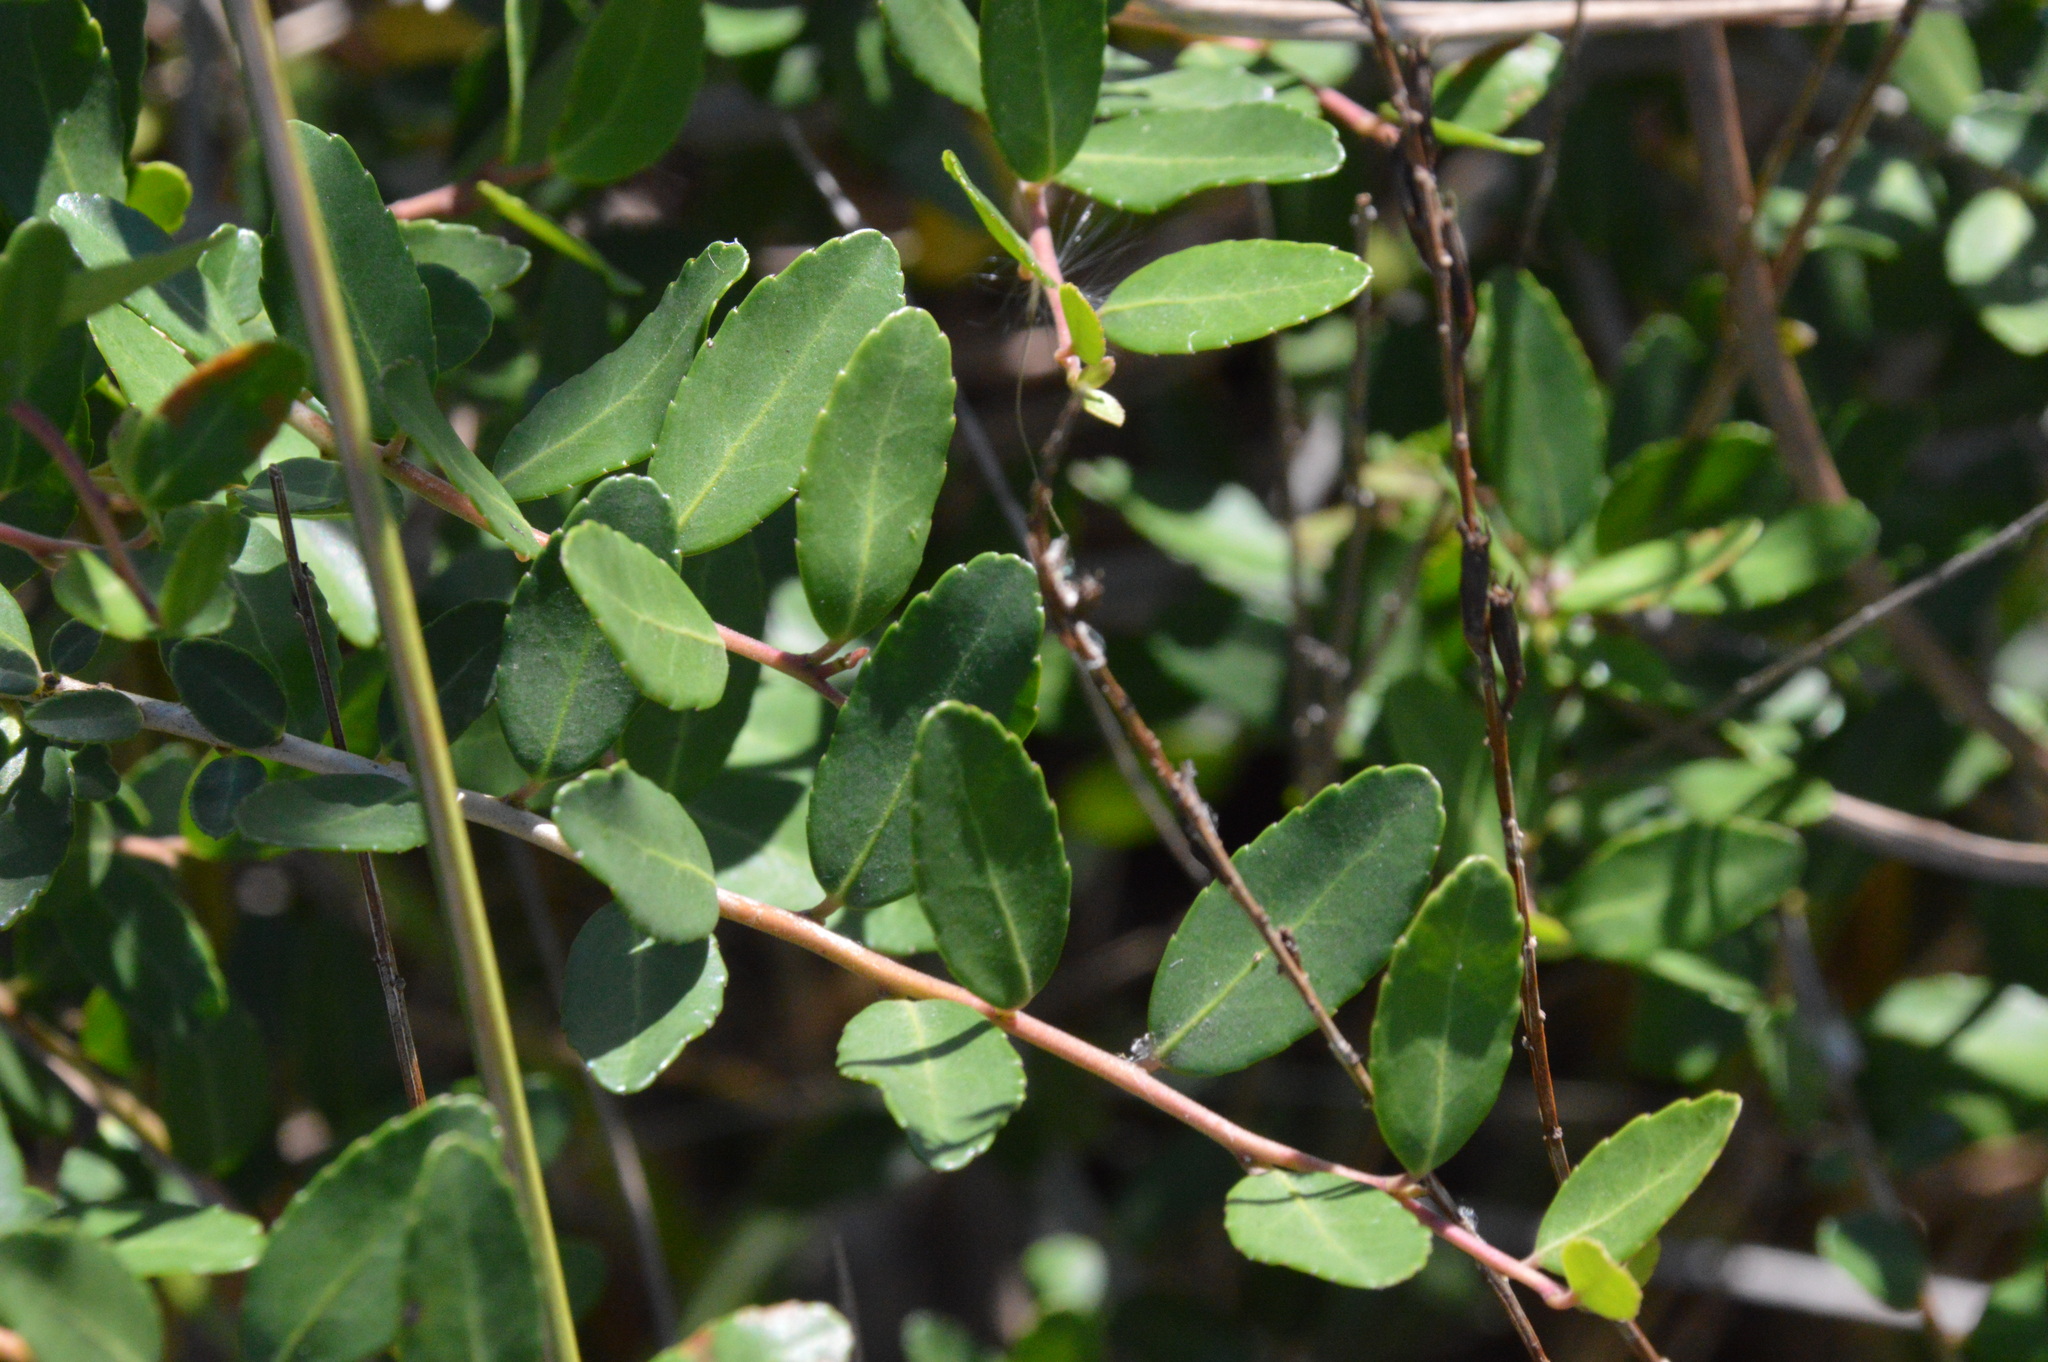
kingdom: Plantae
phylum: Tracheophyta
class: Magnoliopsida
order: Aquifoliales
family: Aquifoliaceae
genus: Ilex
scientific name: Ilex vomitoria
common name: Yaupon holly
